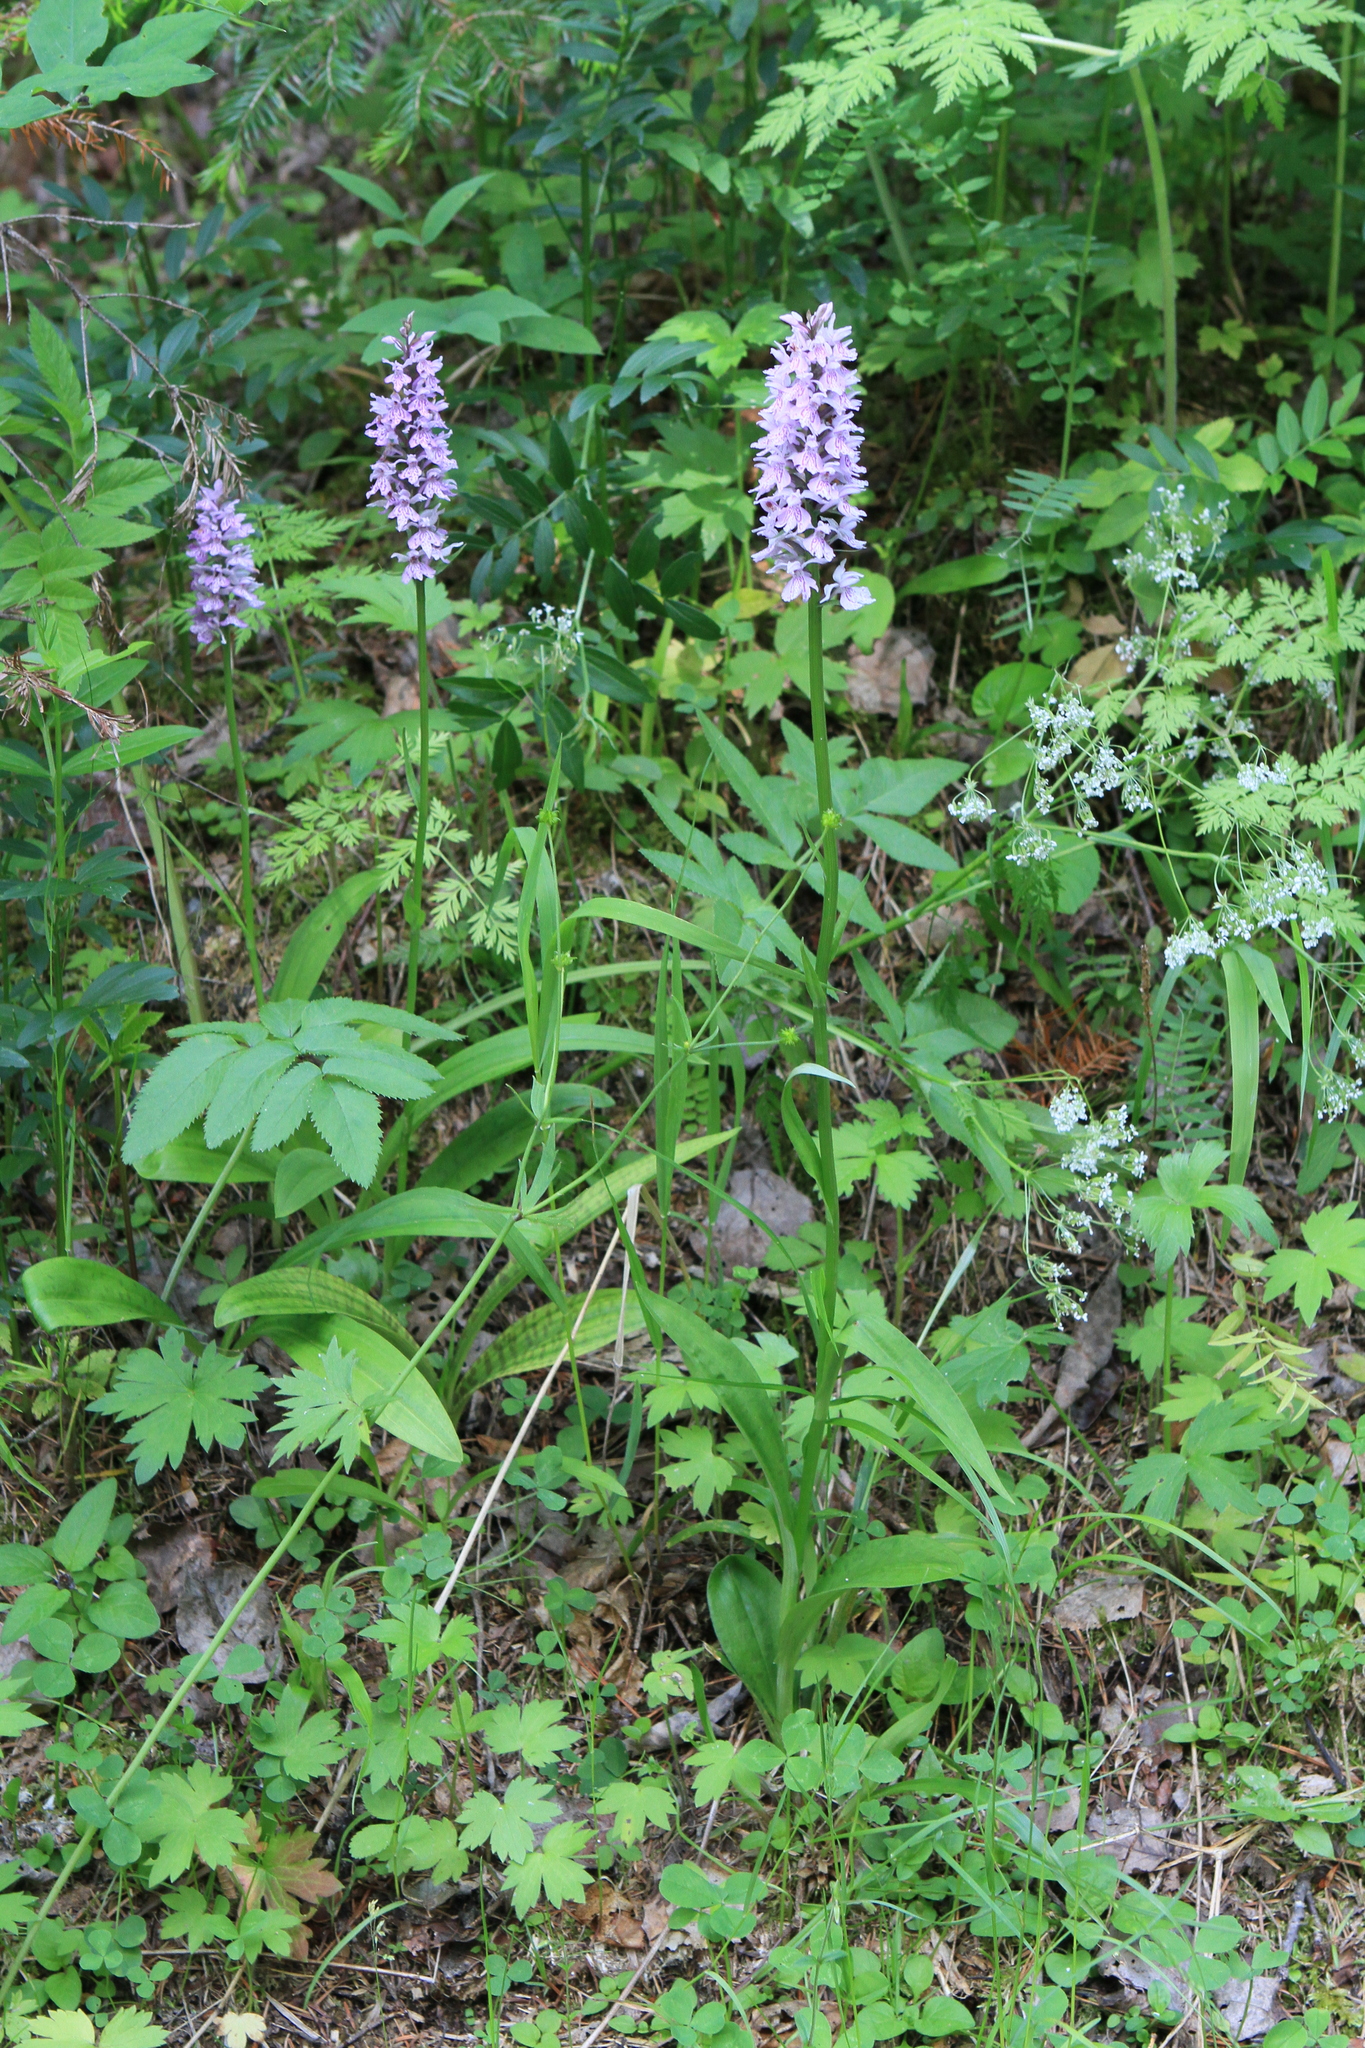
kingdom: Plantae
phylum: Tracheophyta
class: Liliopsida
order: Asparagales
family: Orchidaceae
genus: Dactylorhiza
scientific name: Dactylorhiza maculata
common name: Heath spotted-orchid
